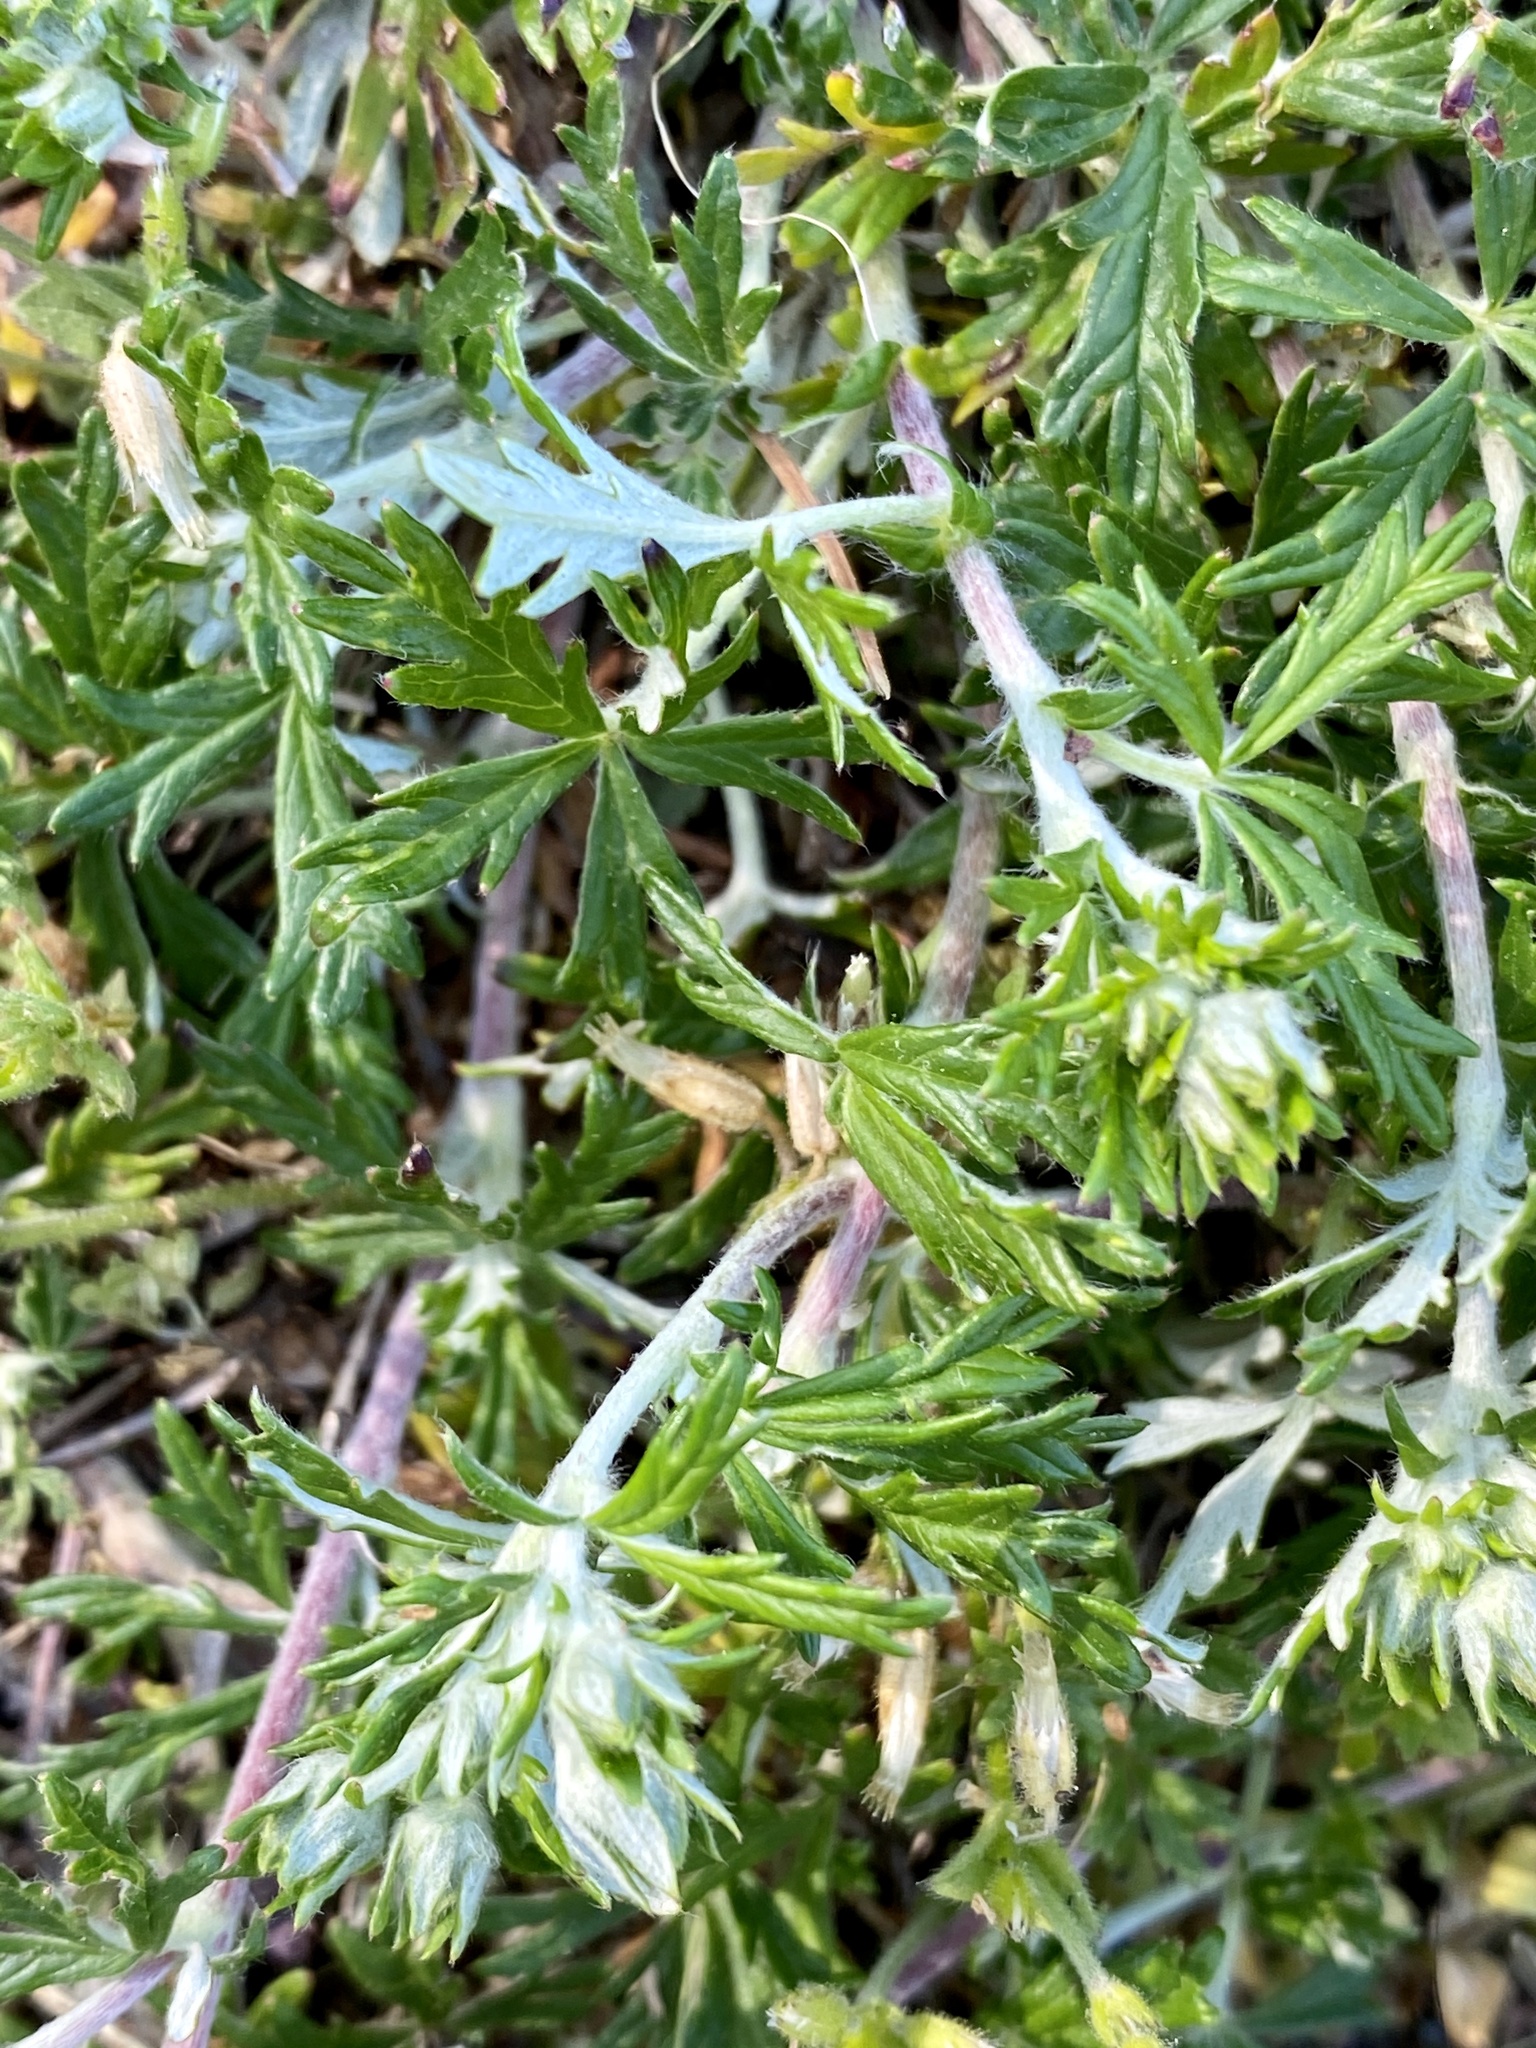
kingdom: Plantae
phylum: Tracheophyta
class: Magnoliopsida
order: Rosales
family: Rosaceae
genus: Potentilla
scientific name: Potentilla argentea
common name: Hoary cinquefoil
